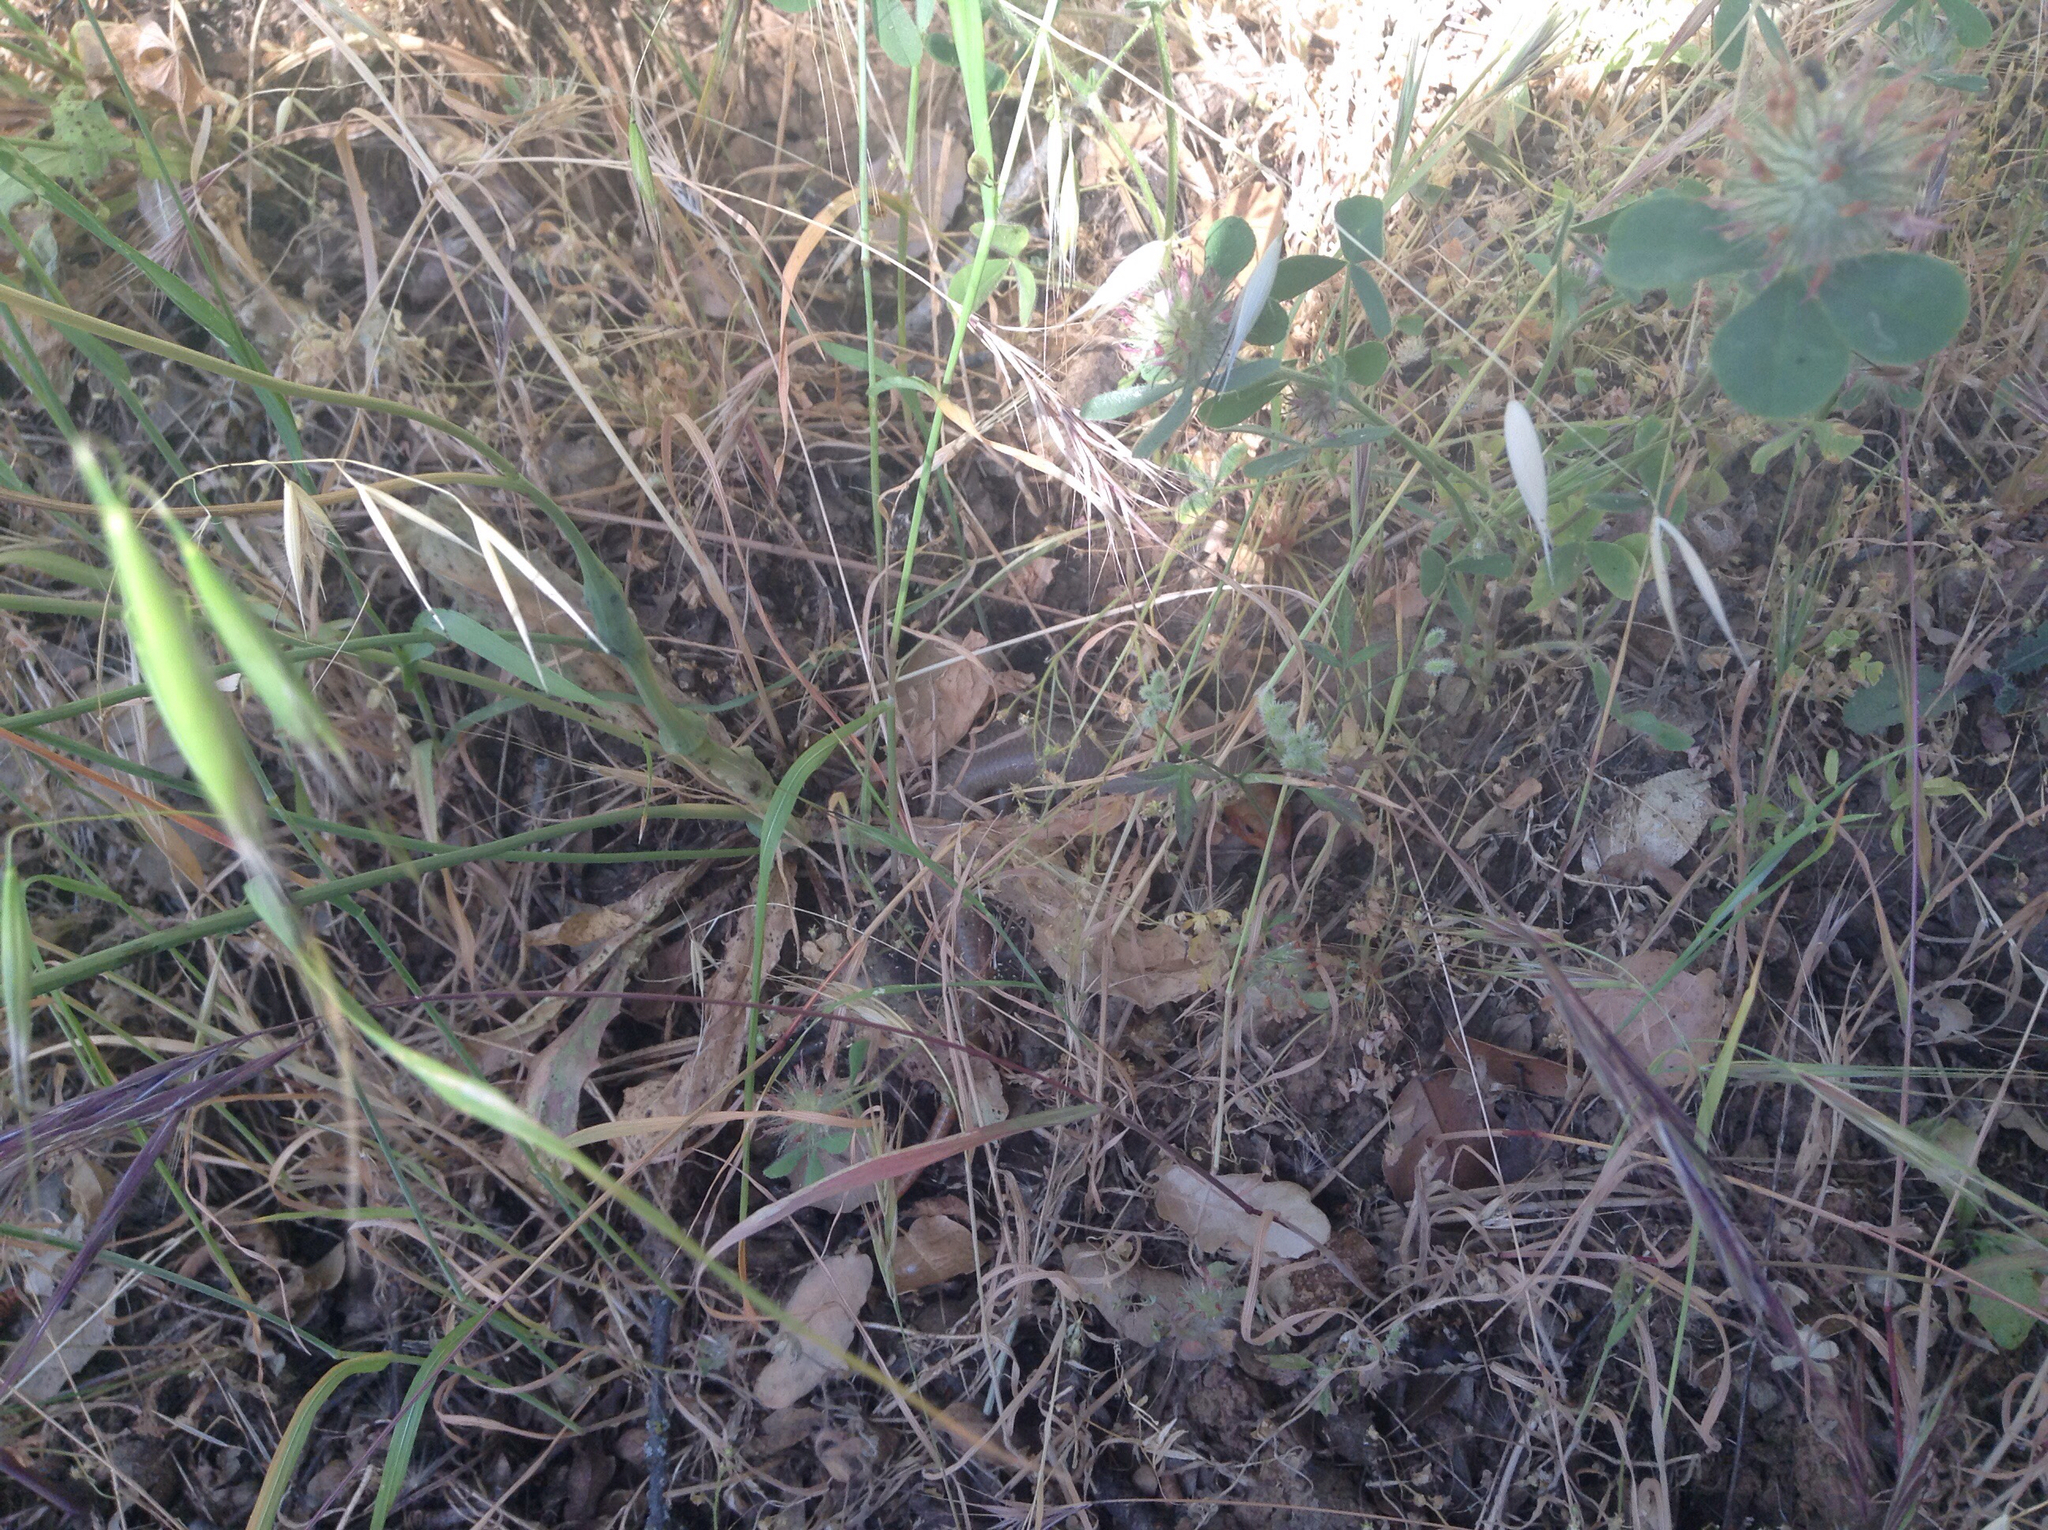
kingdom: Animalia
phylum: Chordata
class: Squamata
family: Scincidae
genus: Plestiodon
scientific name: Plestiodon gilberti
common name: Gilbert's skink
